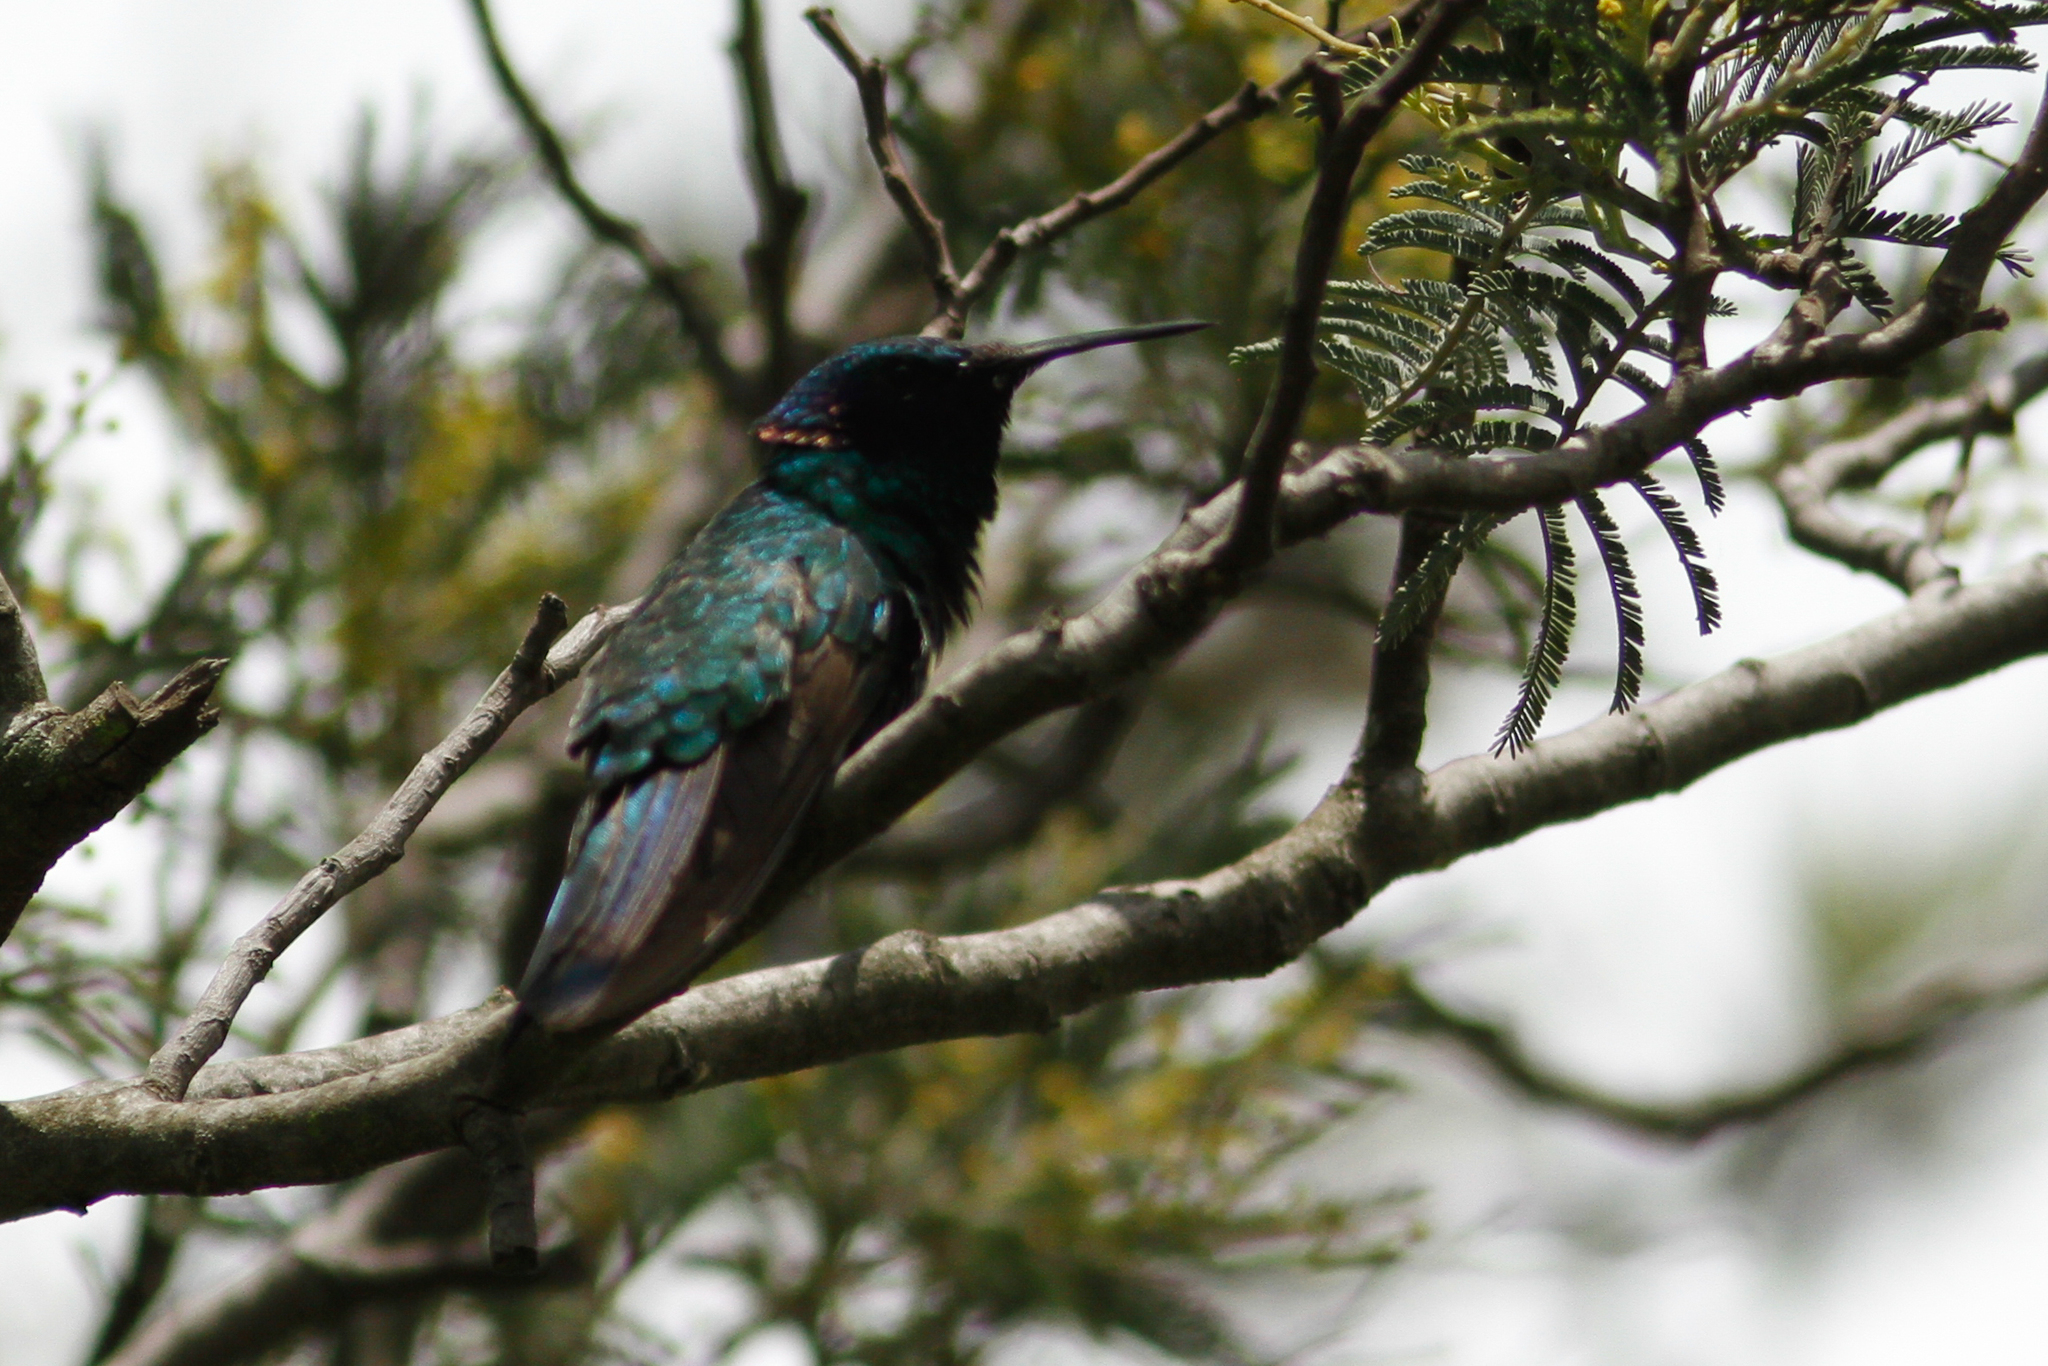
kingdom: Animalia
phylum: Chordata
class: Aves
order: Apodiformes
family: Trochilidae
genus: Colibri
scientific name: Colibri coruscans
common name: Sparkling violetear
